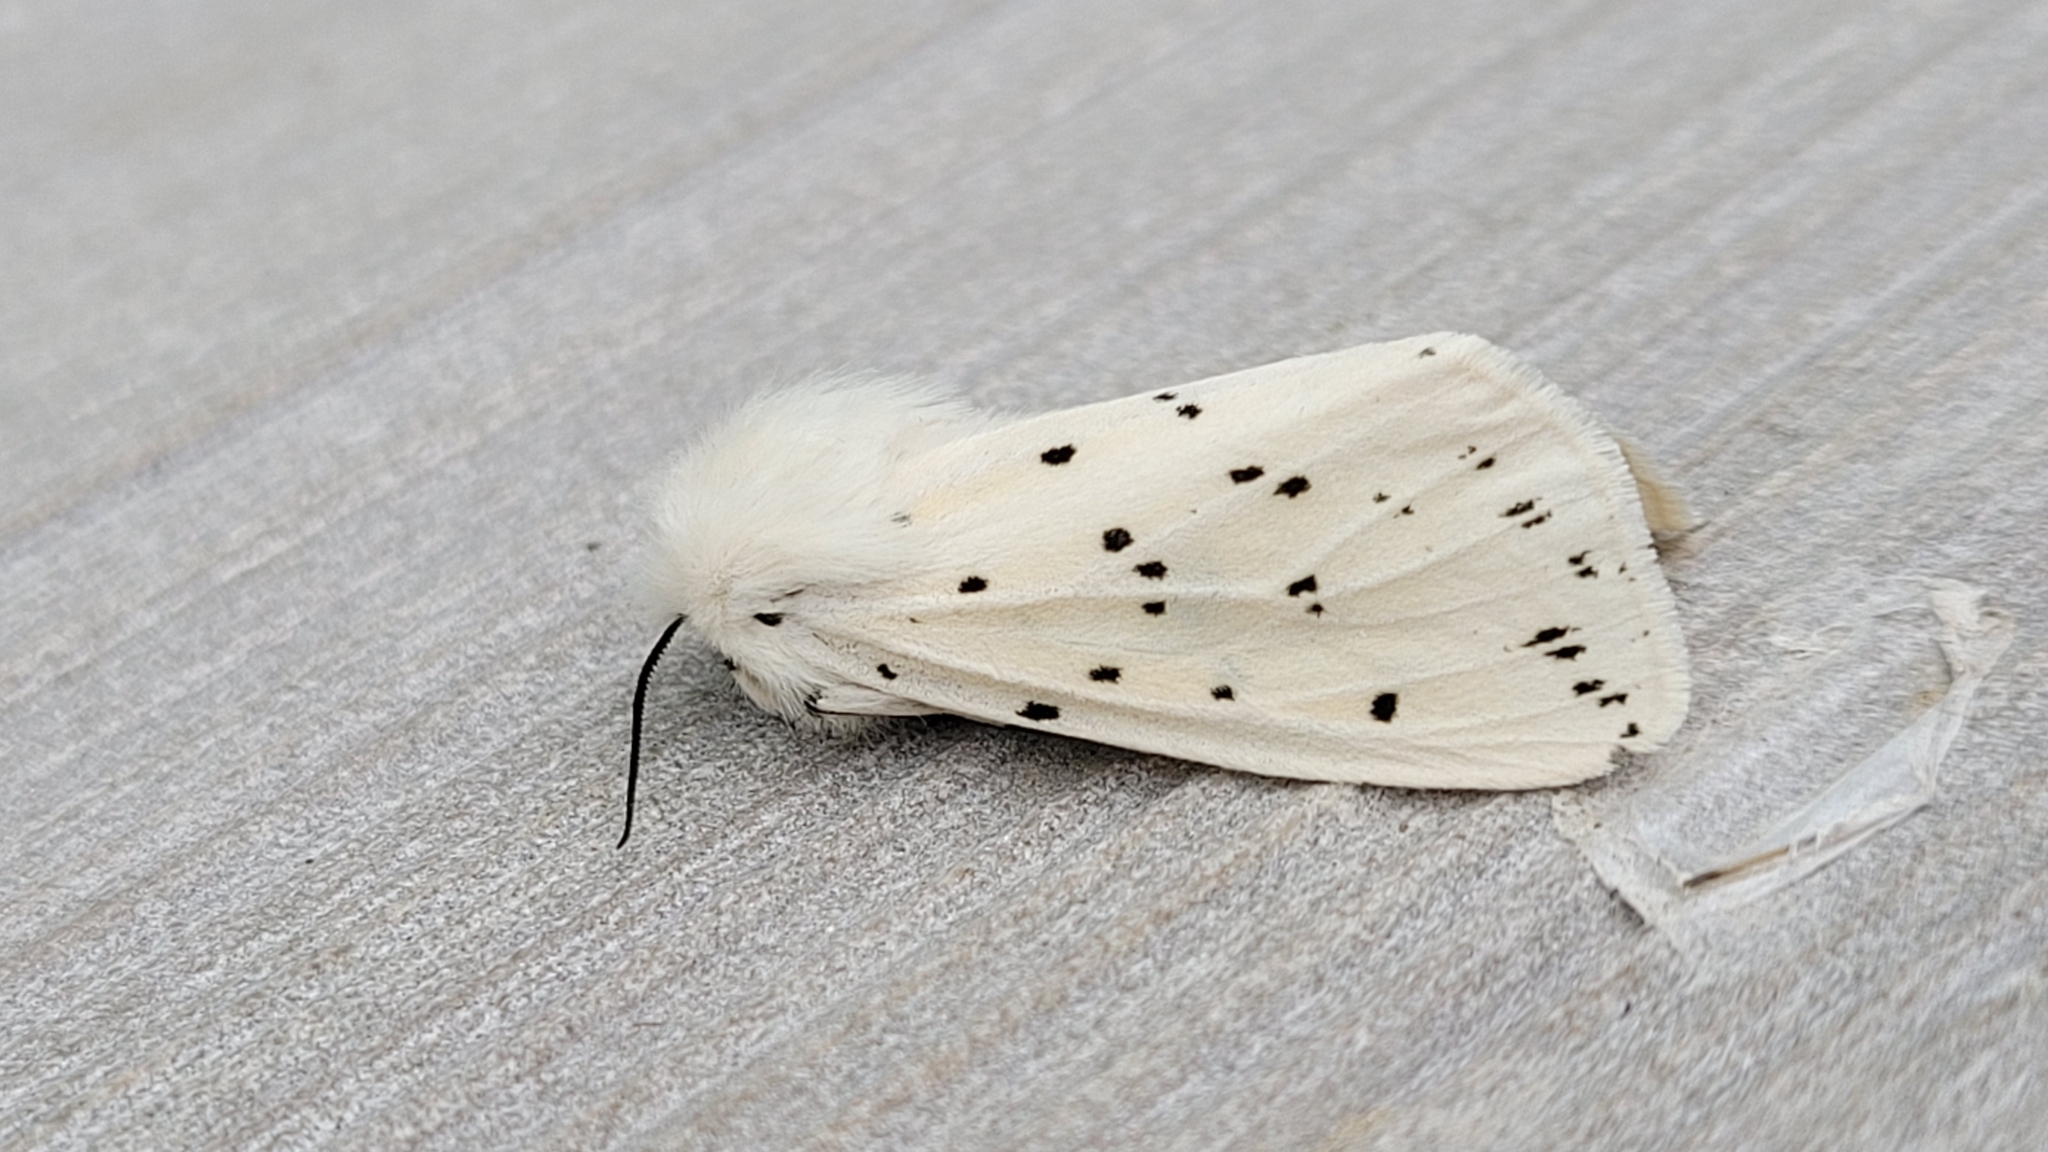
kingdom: Animalia
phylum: Arthropoda
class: Insecta
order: Lepidoptera
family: Erebidae
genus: Spilosoma
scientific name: Spilosoma lubricipeda
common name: White ermine
